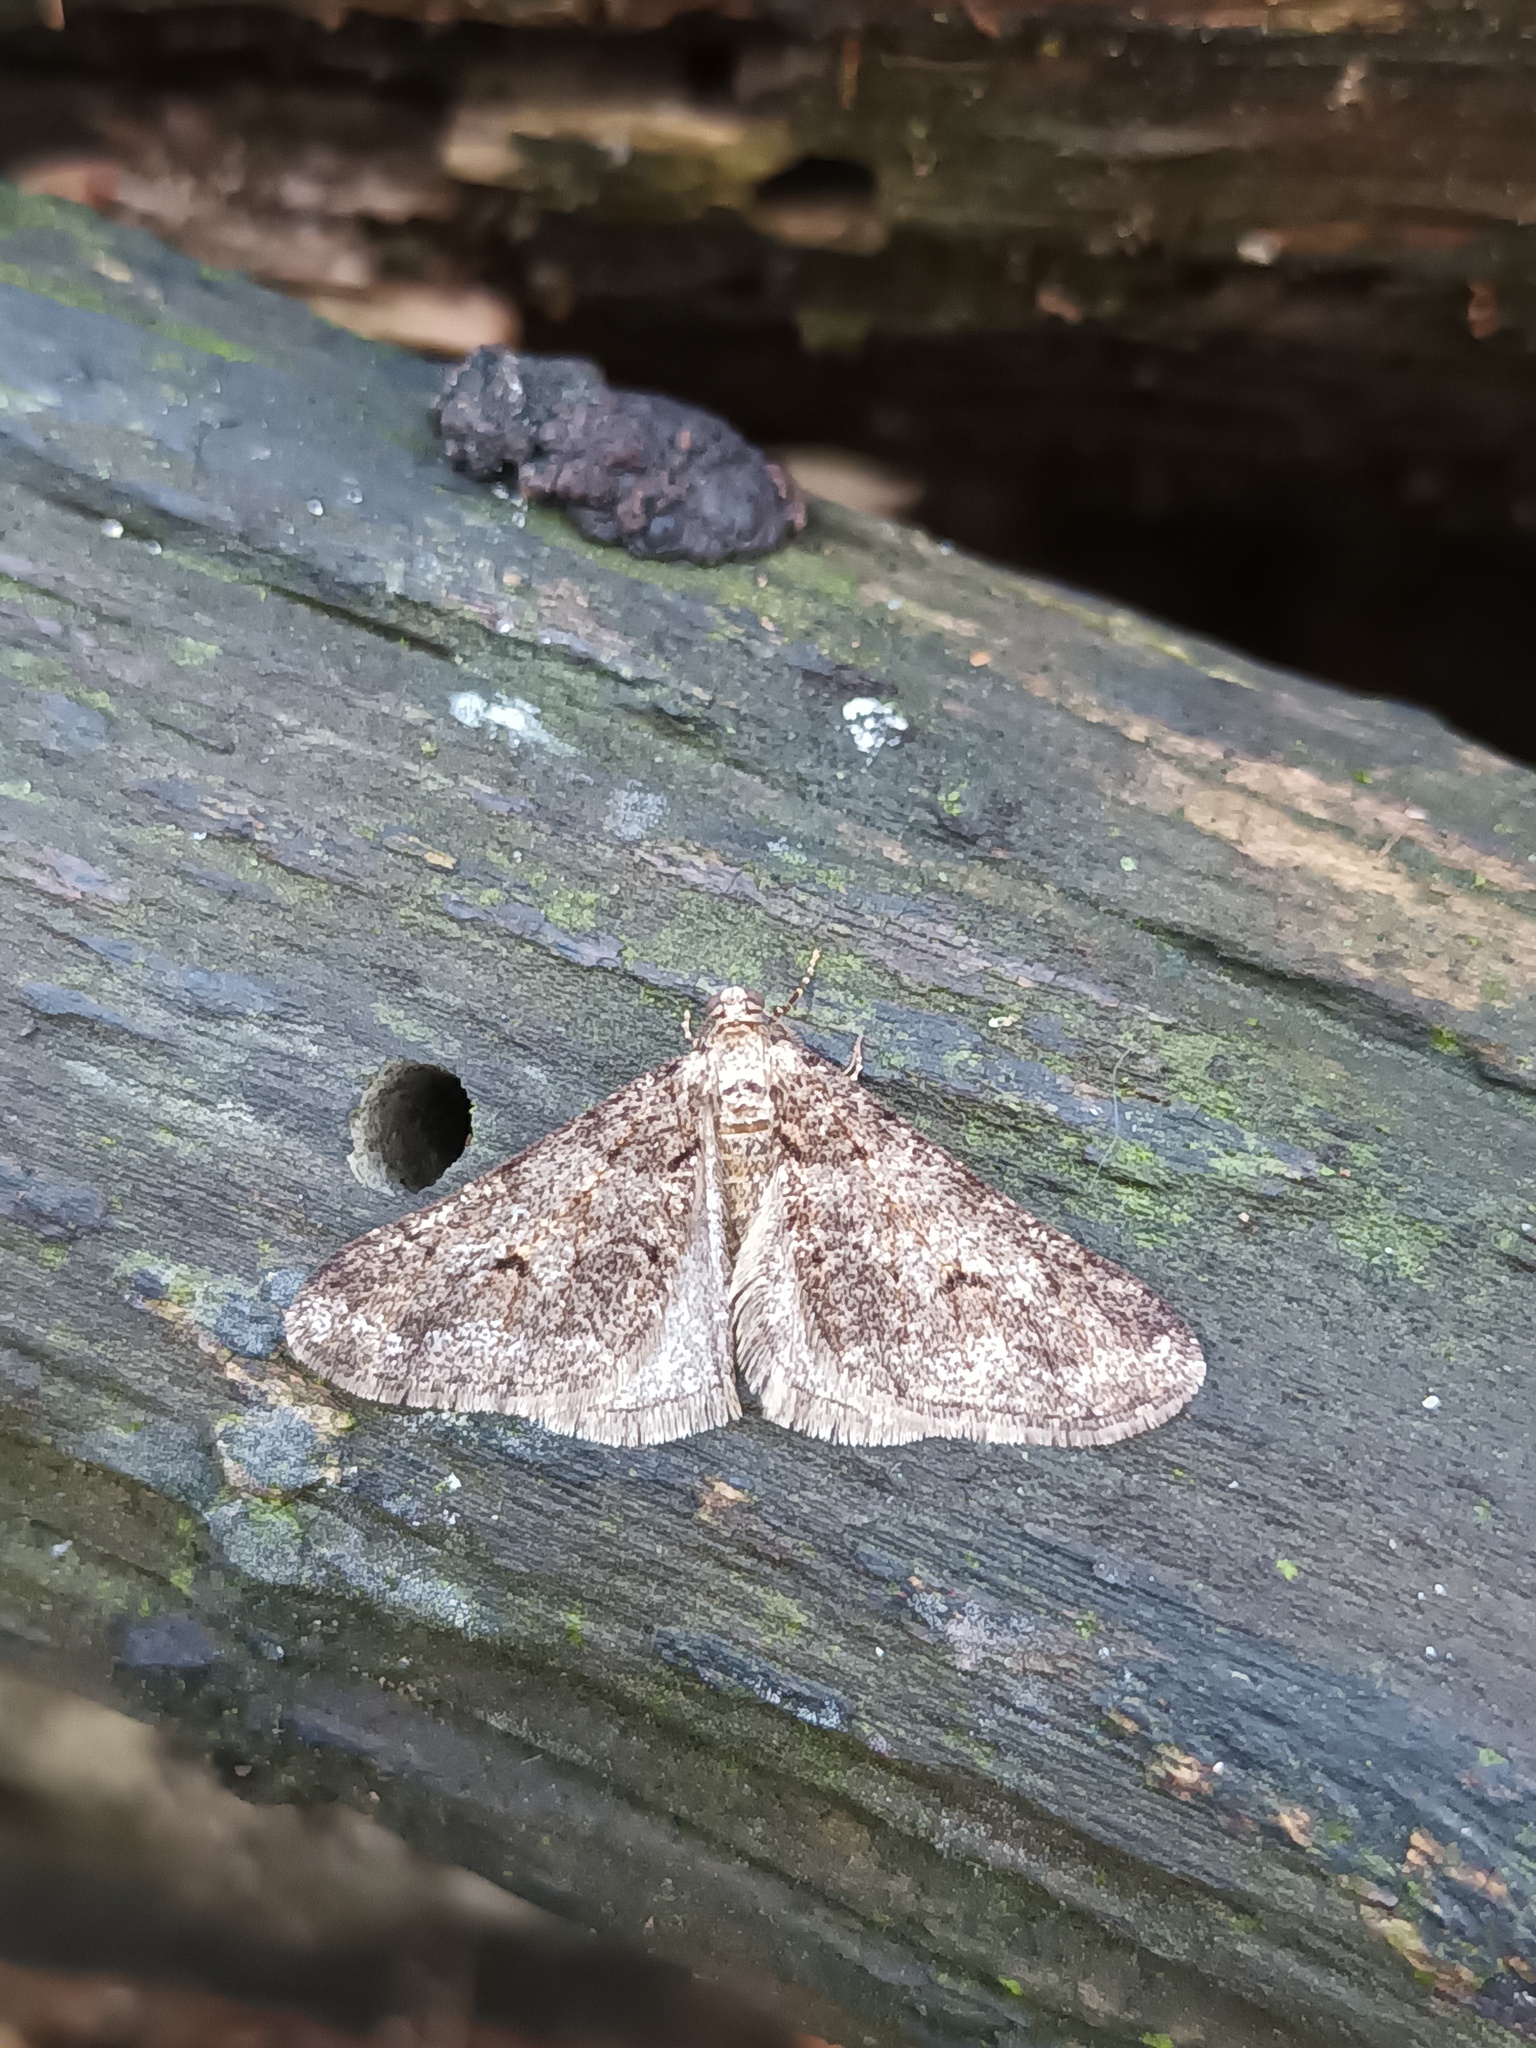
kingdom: Animalia
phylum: Arthropoda
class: Insecta
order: Lepidoptera
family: Geometridae
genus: Agriopis
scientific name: Agriopis leucophaearia
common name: Spring usher
